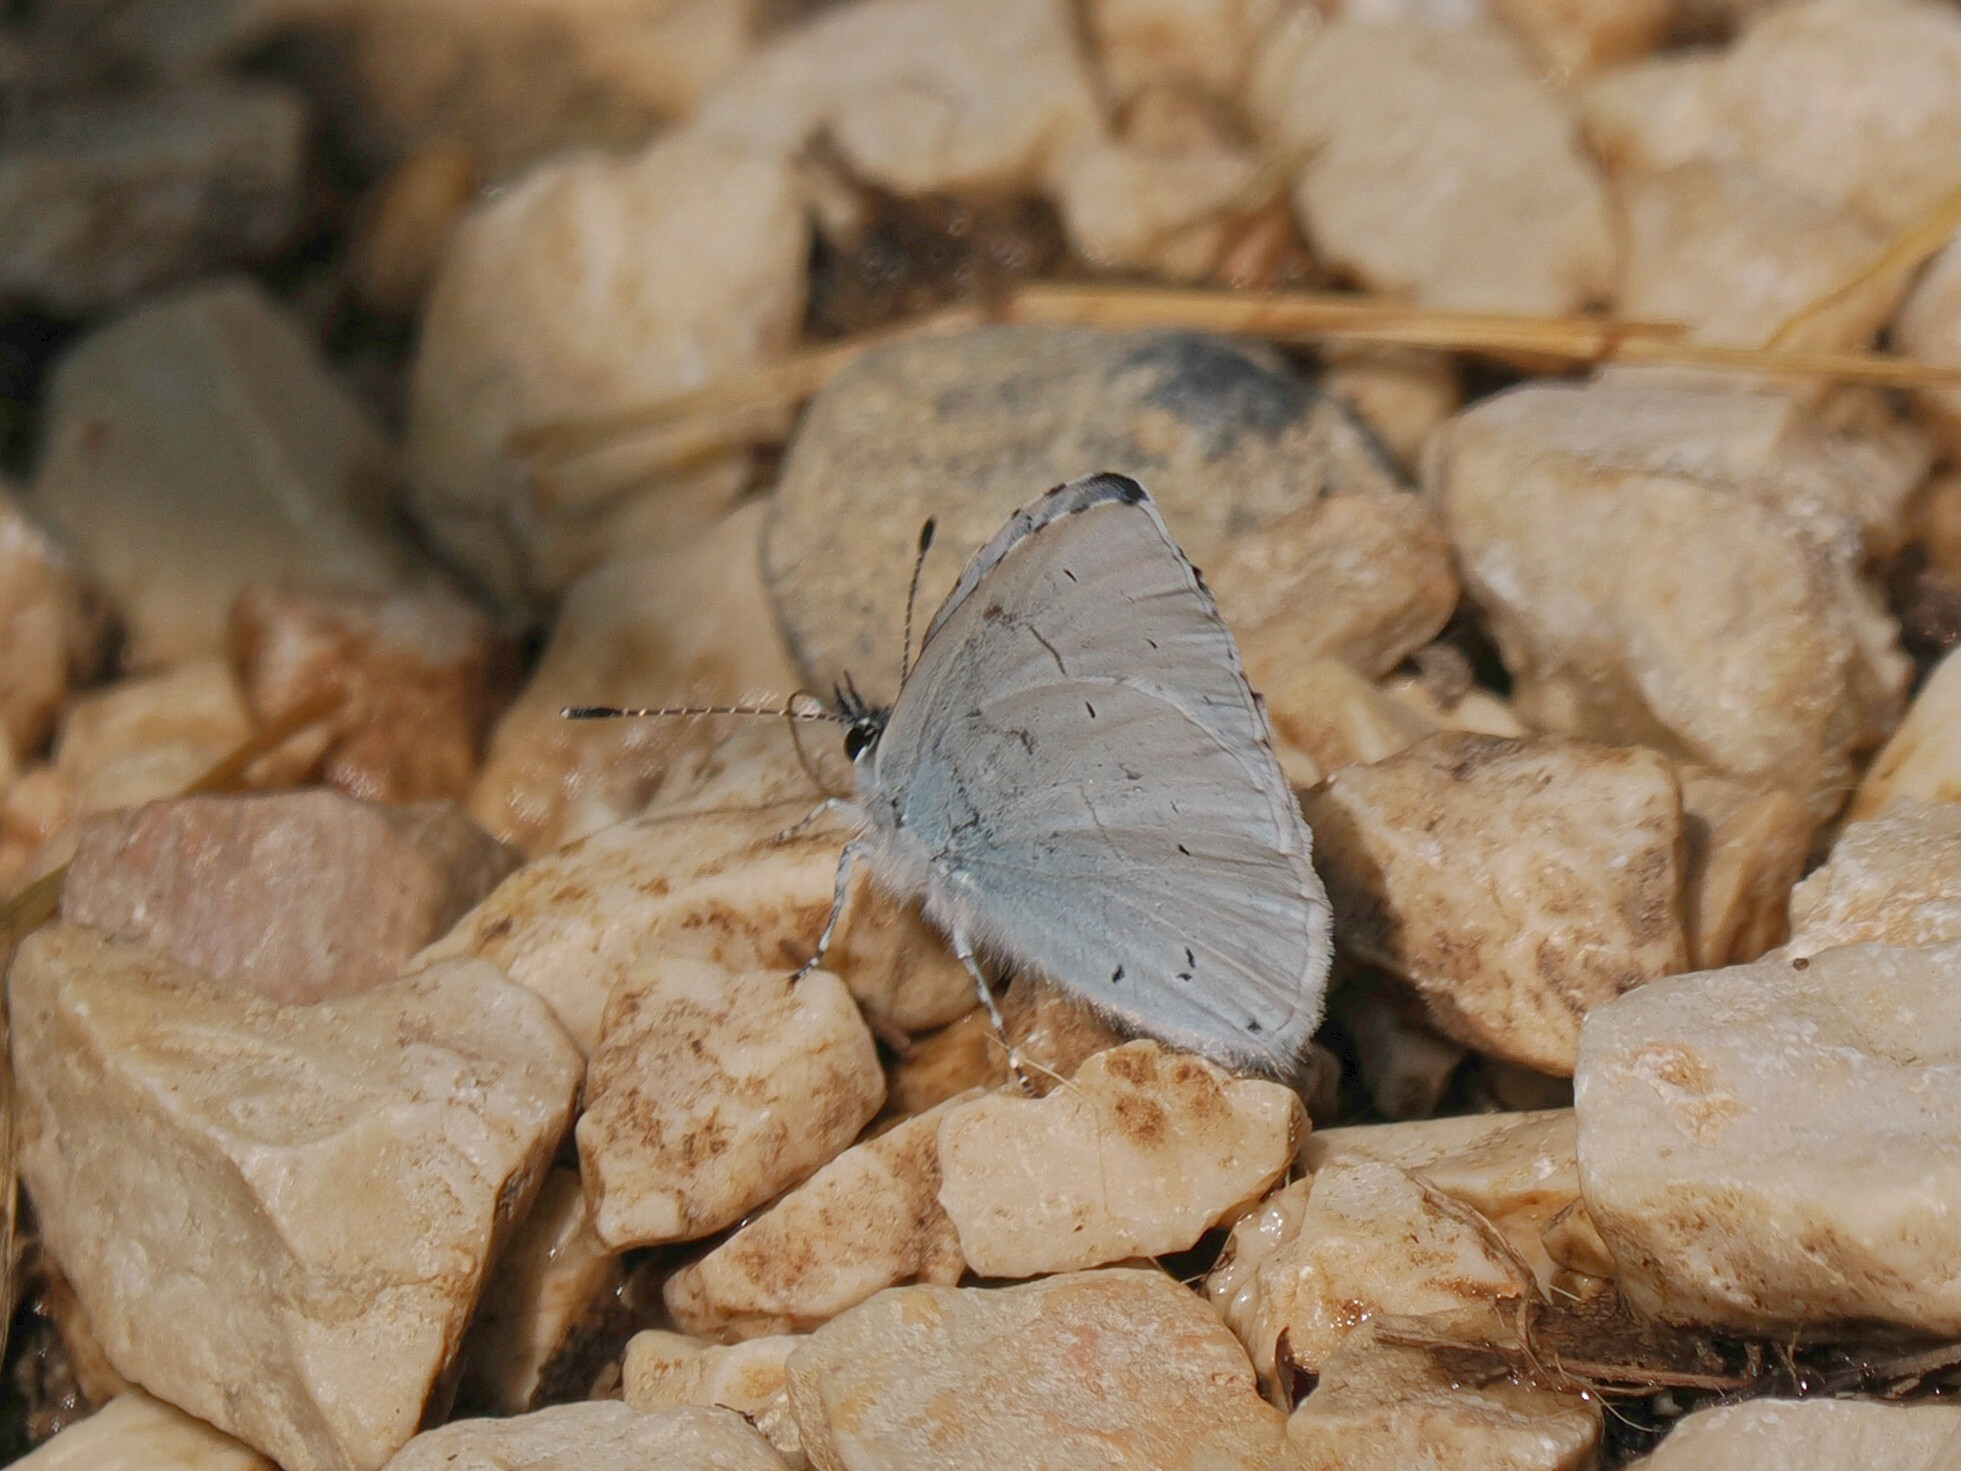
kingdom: Animalia
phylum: Arthropoda
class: Insecta
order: Lepidoptera
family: Lycaenidae
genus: Celastrina
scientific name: Celastrina argiolus
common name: Holly blue
